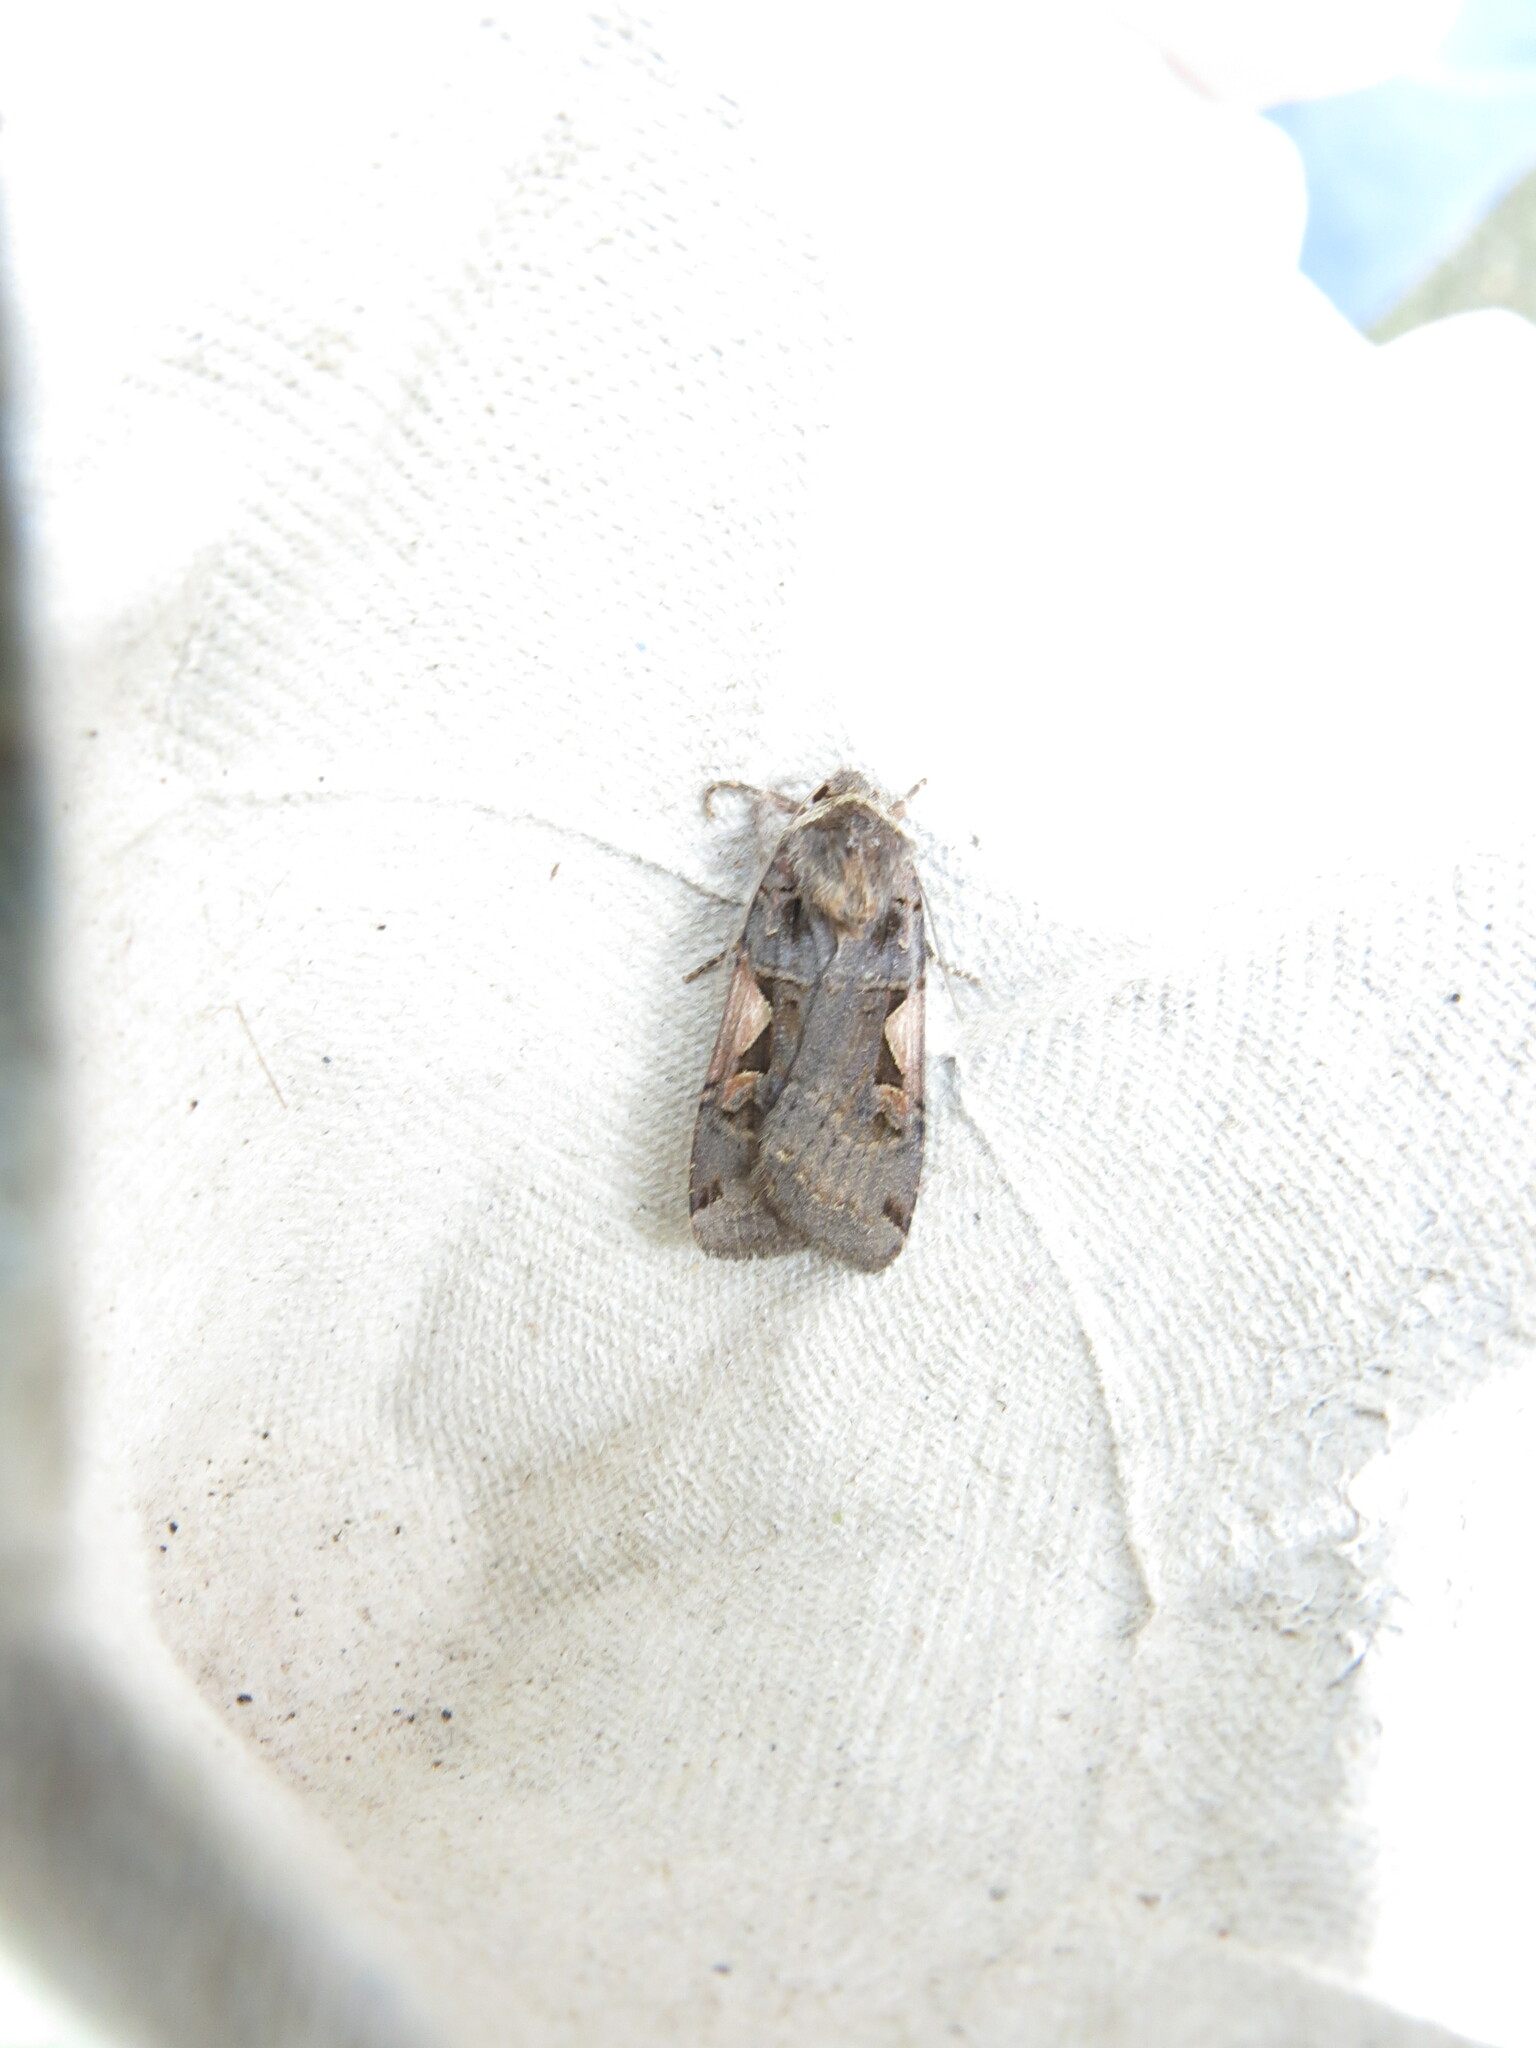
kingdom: Animalia
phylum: Arthropoda
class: Insecta
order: Lepidoptera
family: Noctuidae
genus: Xestia
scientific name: Xestia c-nigrum
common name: Setaceous hebrew character
